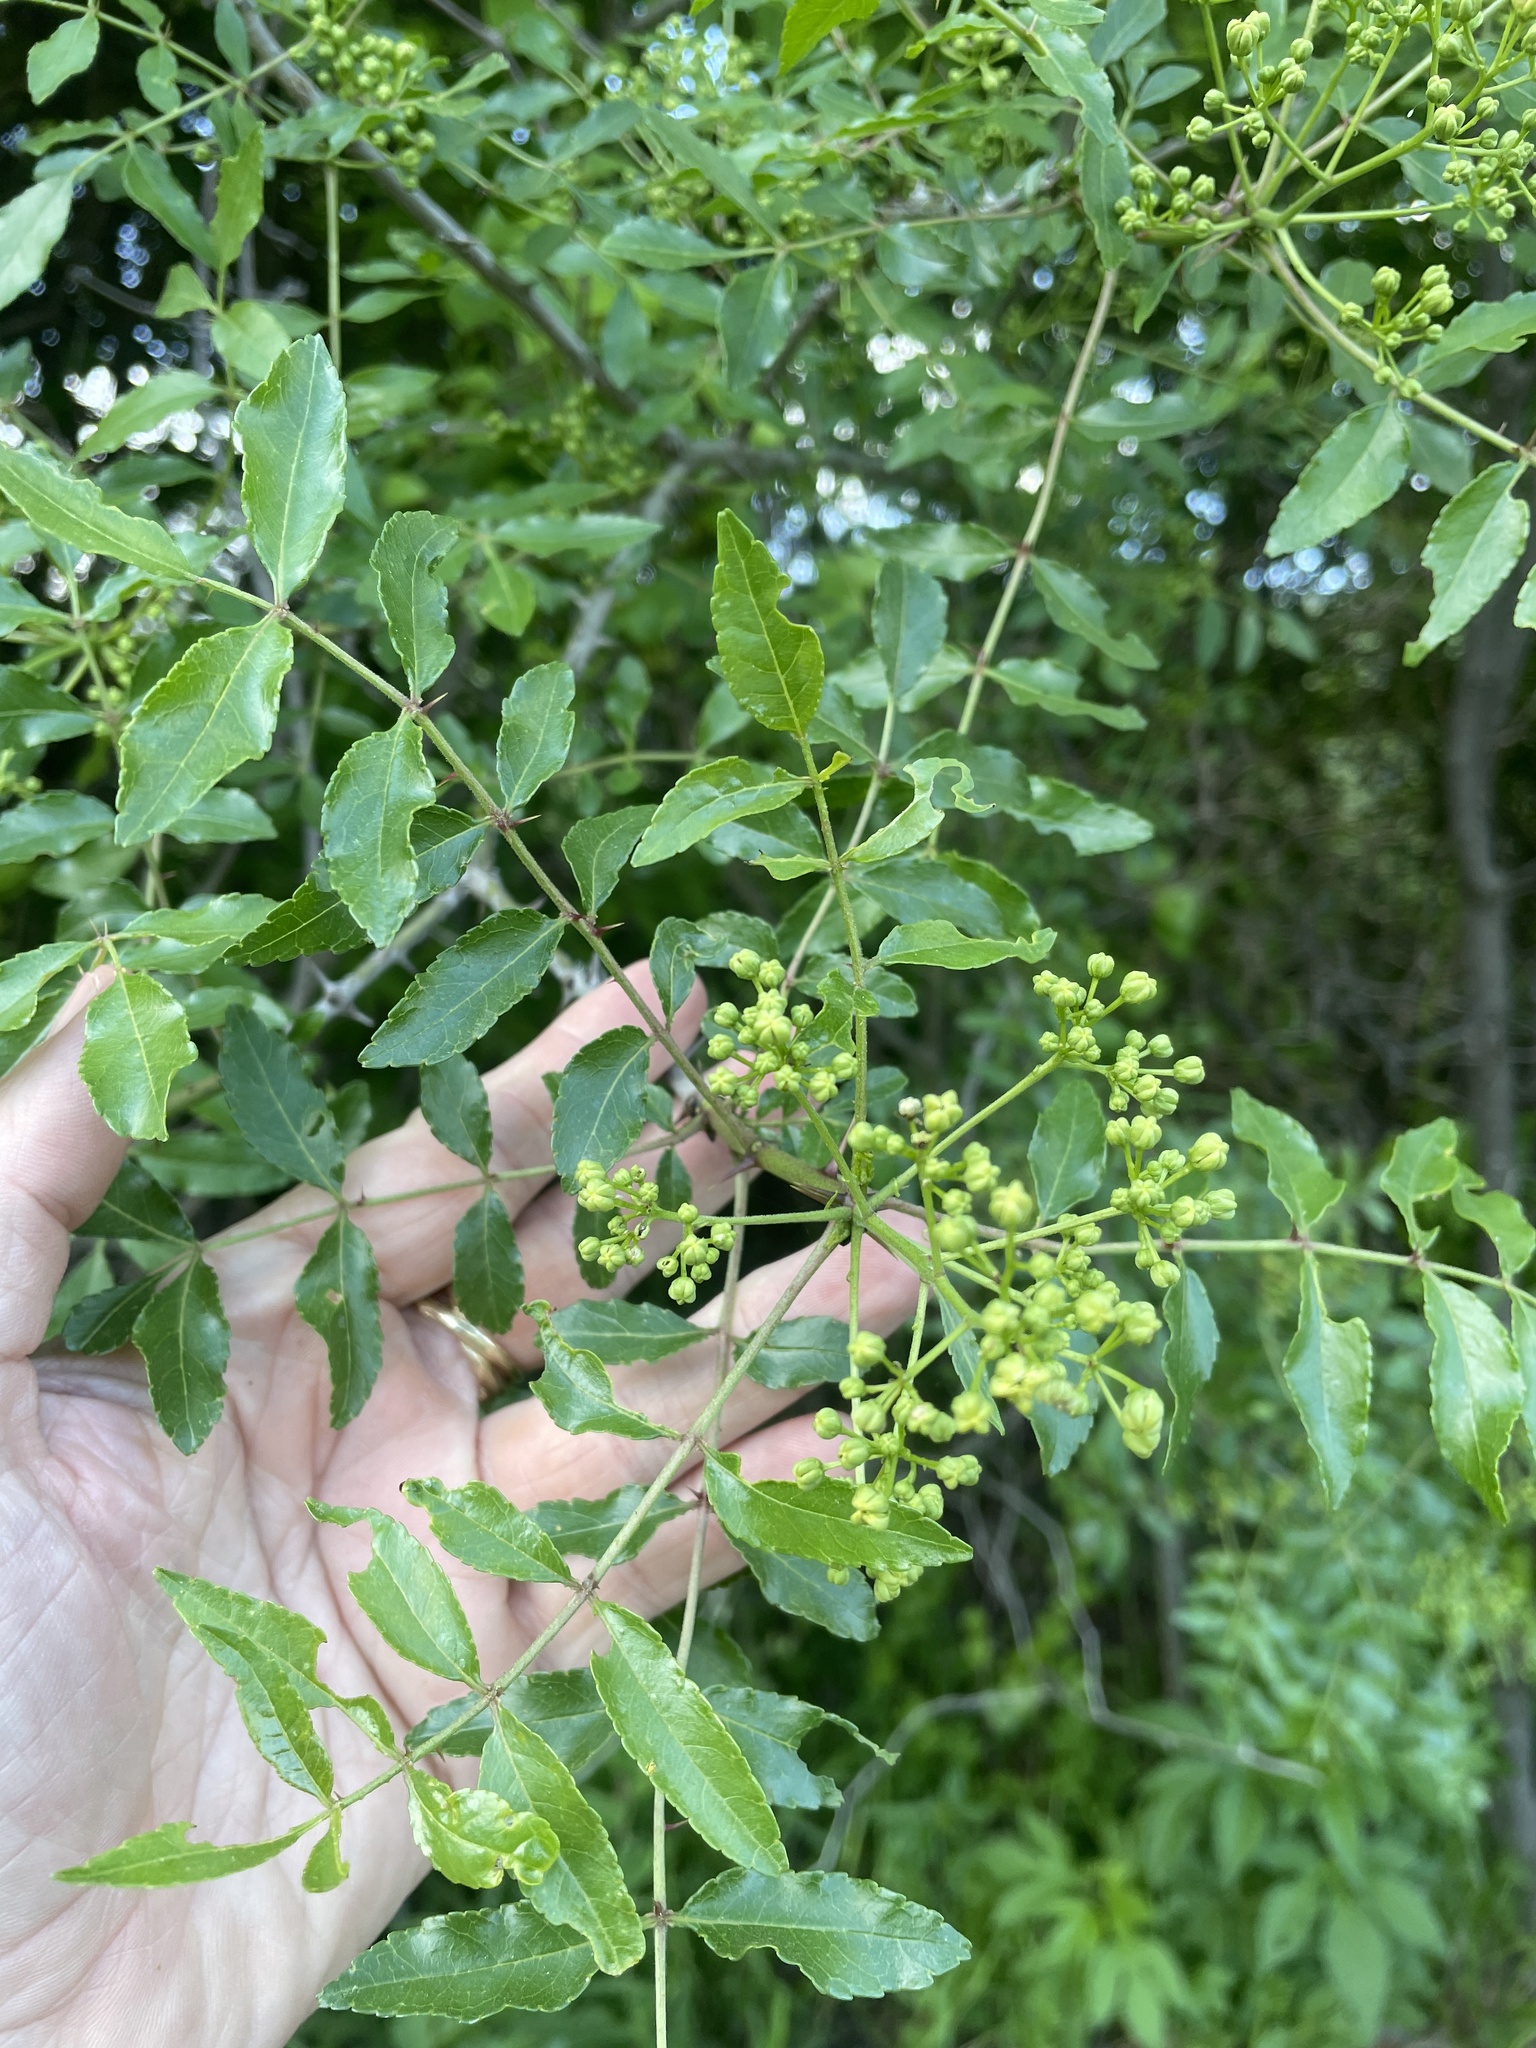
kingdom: Plantae
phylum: Tracheophyta
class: Magnoliopsida
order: Sapindales
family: Rutaceae
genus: Zanthoxylum
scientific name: Zanthoxylum clava-herculis
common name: Hercules'-club
